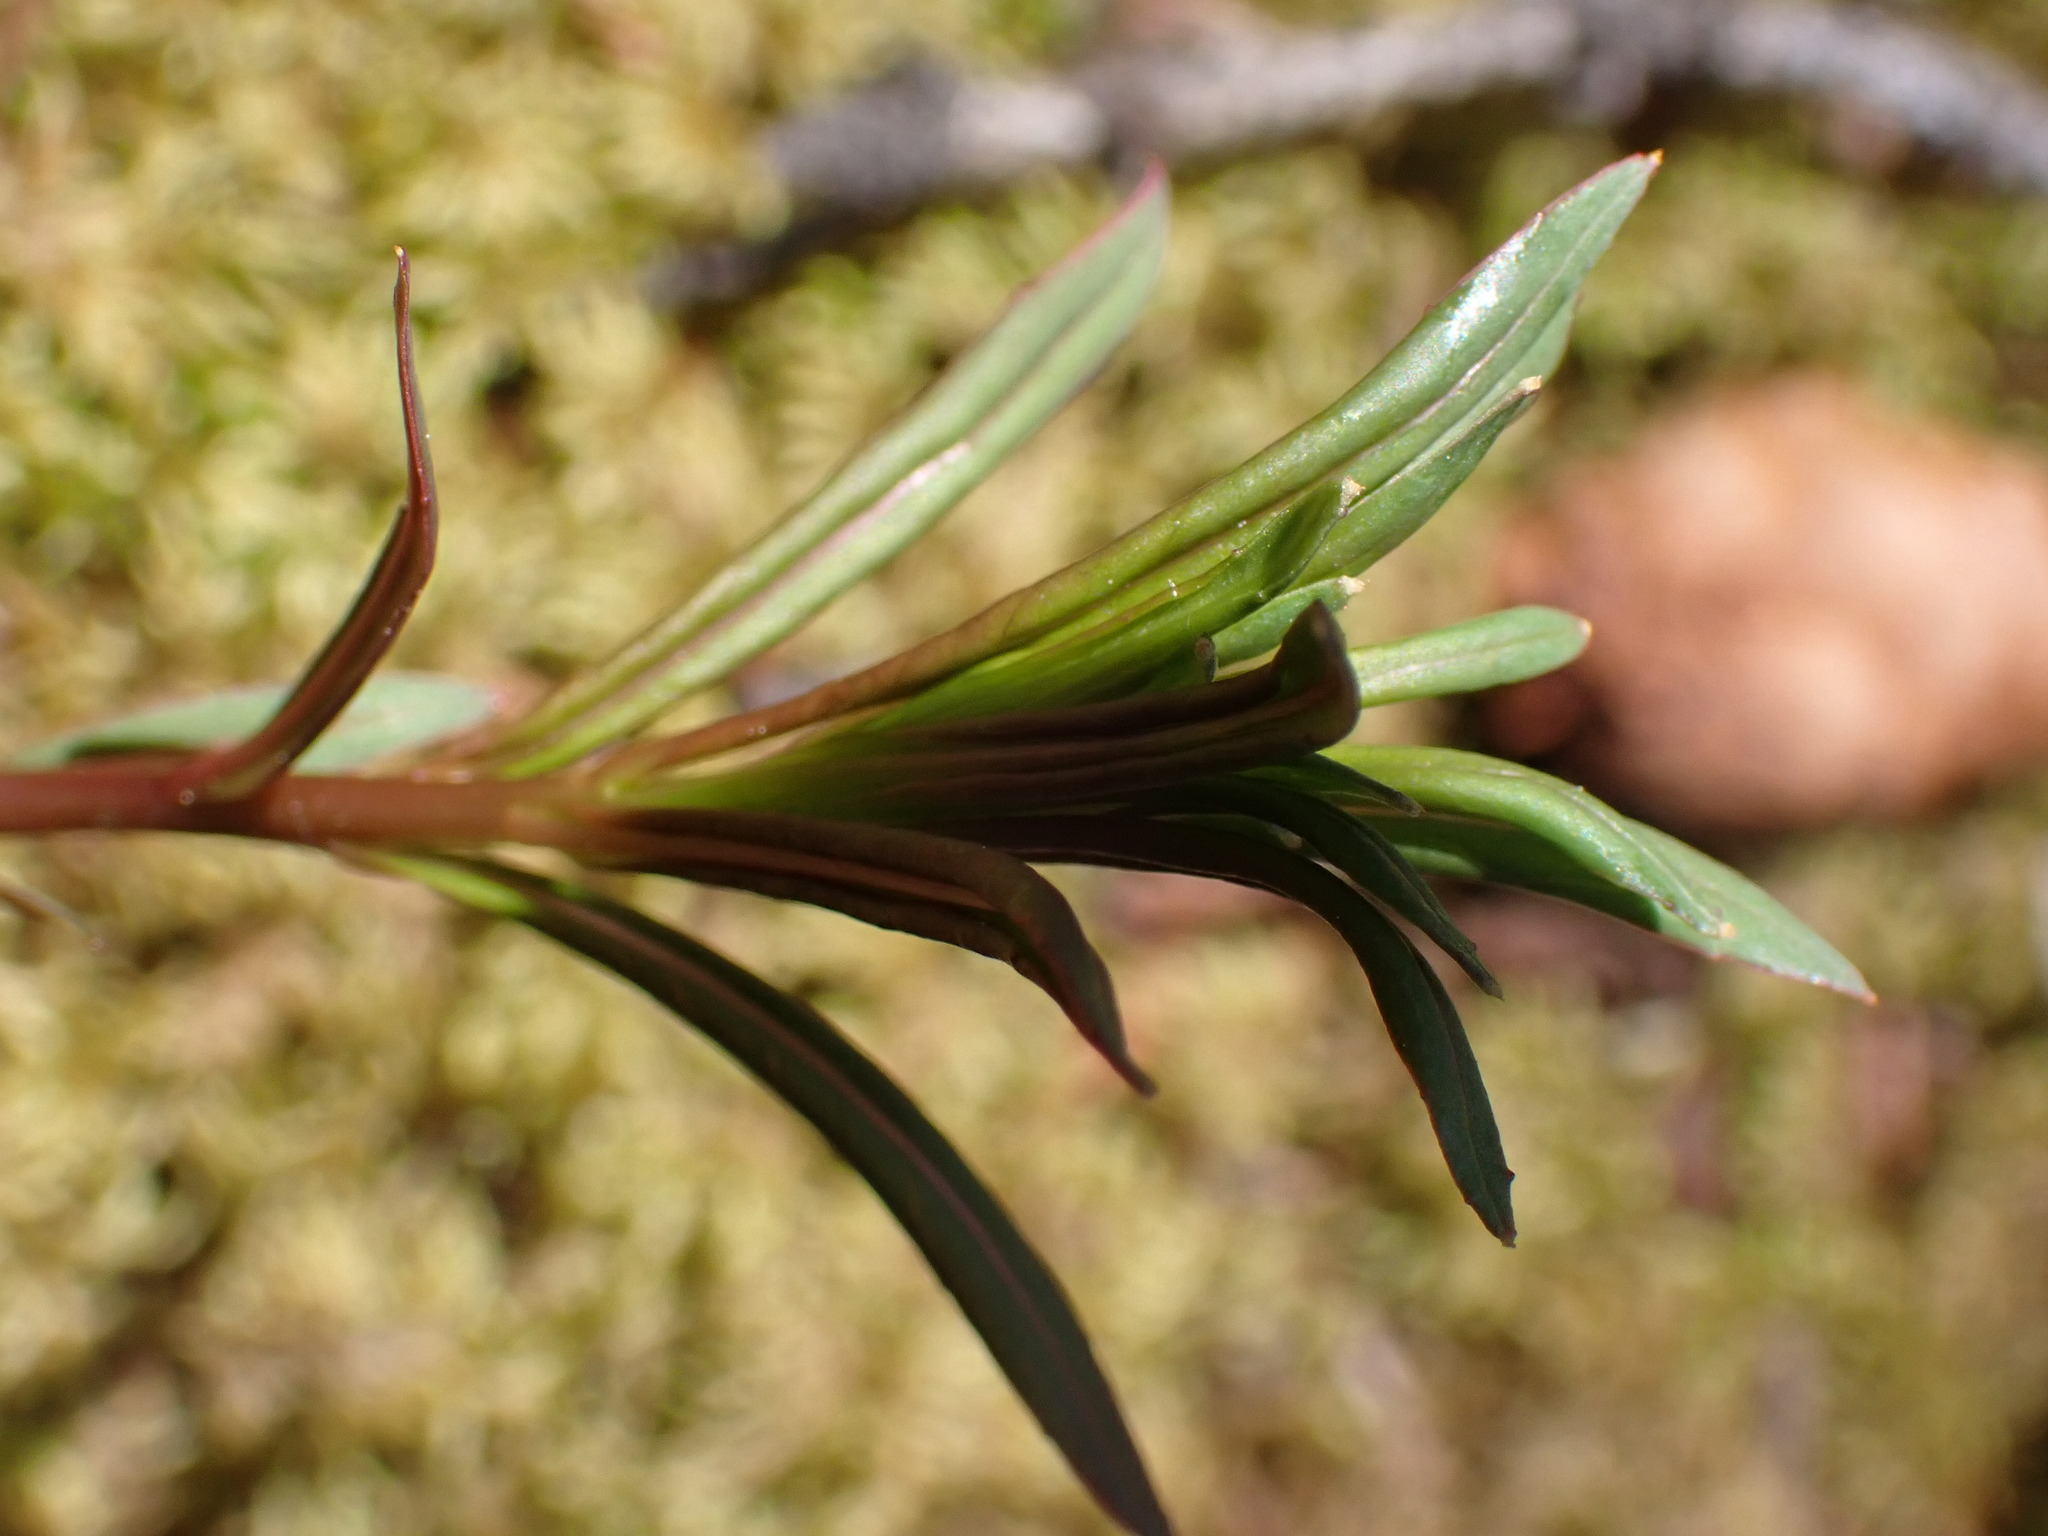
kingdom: Plantae
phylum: Tracheophyta
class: Magnoliopsida
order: Myrtales
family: Onagraceae
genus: Chamaenerion
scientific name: Chamaenerion angustifolium
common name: Fireweed
